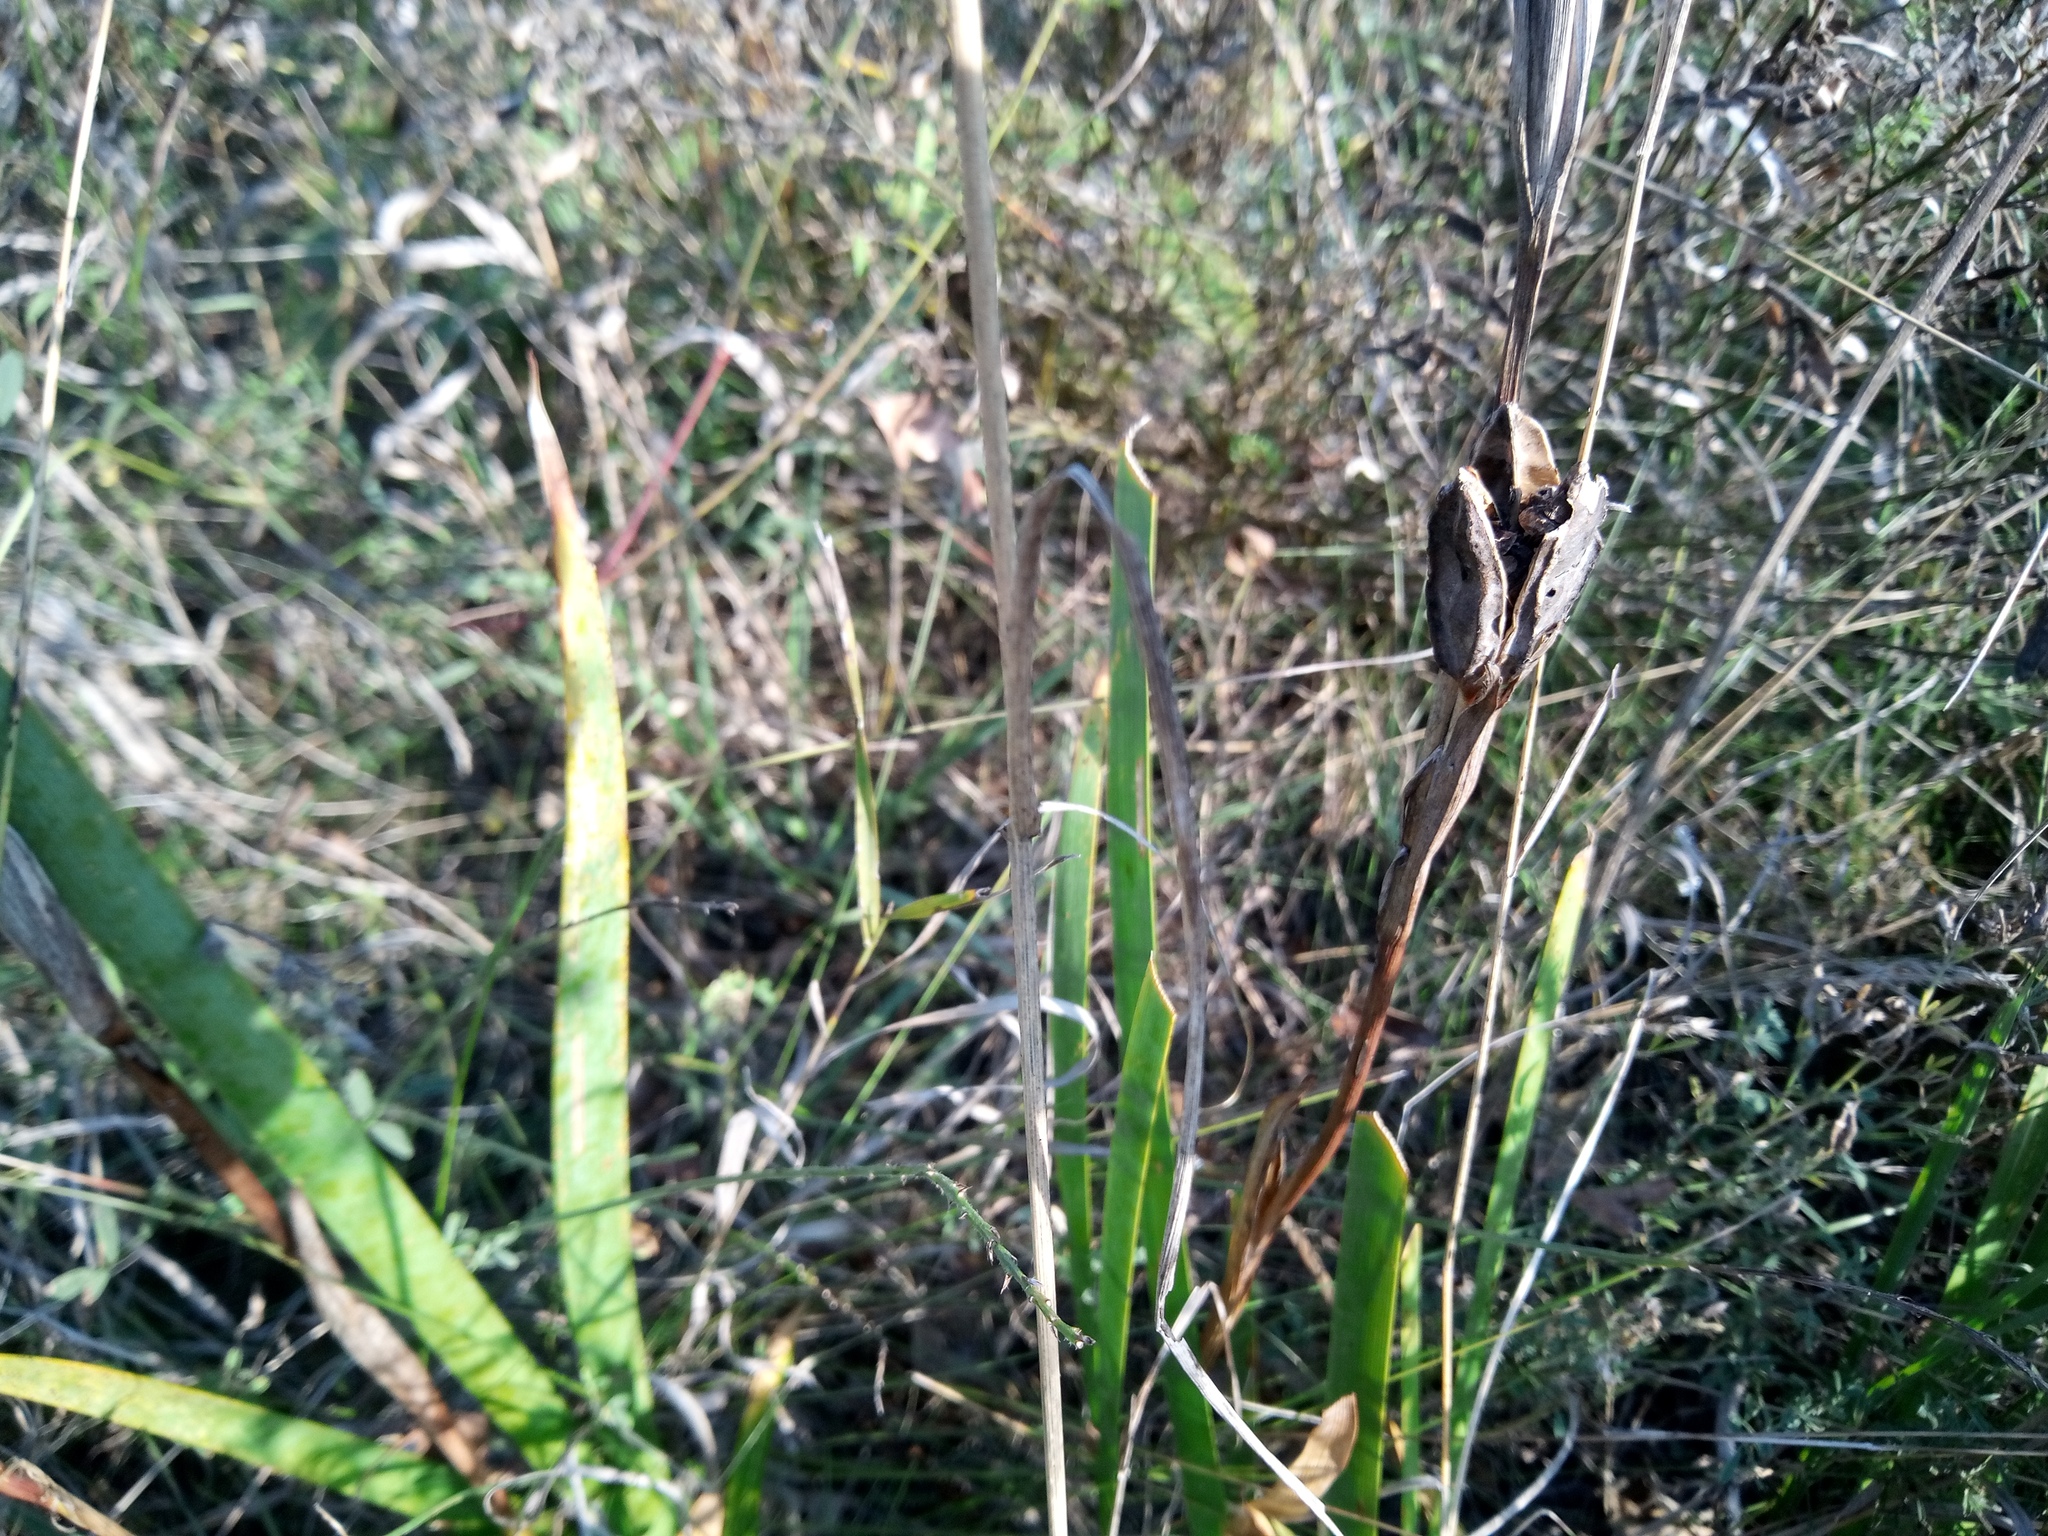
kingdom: Plantae
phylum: Tracheophyta
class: Liliopsida
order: Asparagales
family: Iridaceae
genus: Iris
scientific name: Iris halophila
